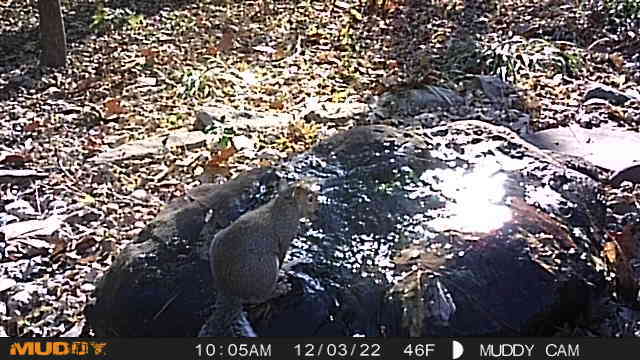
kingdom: Animalia
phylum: Chordata
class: Mammalia
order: Rodentia
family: Sciuridae
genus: Sciurus
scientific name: Sciurus carolinensis
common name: Eastern gray squirrel
